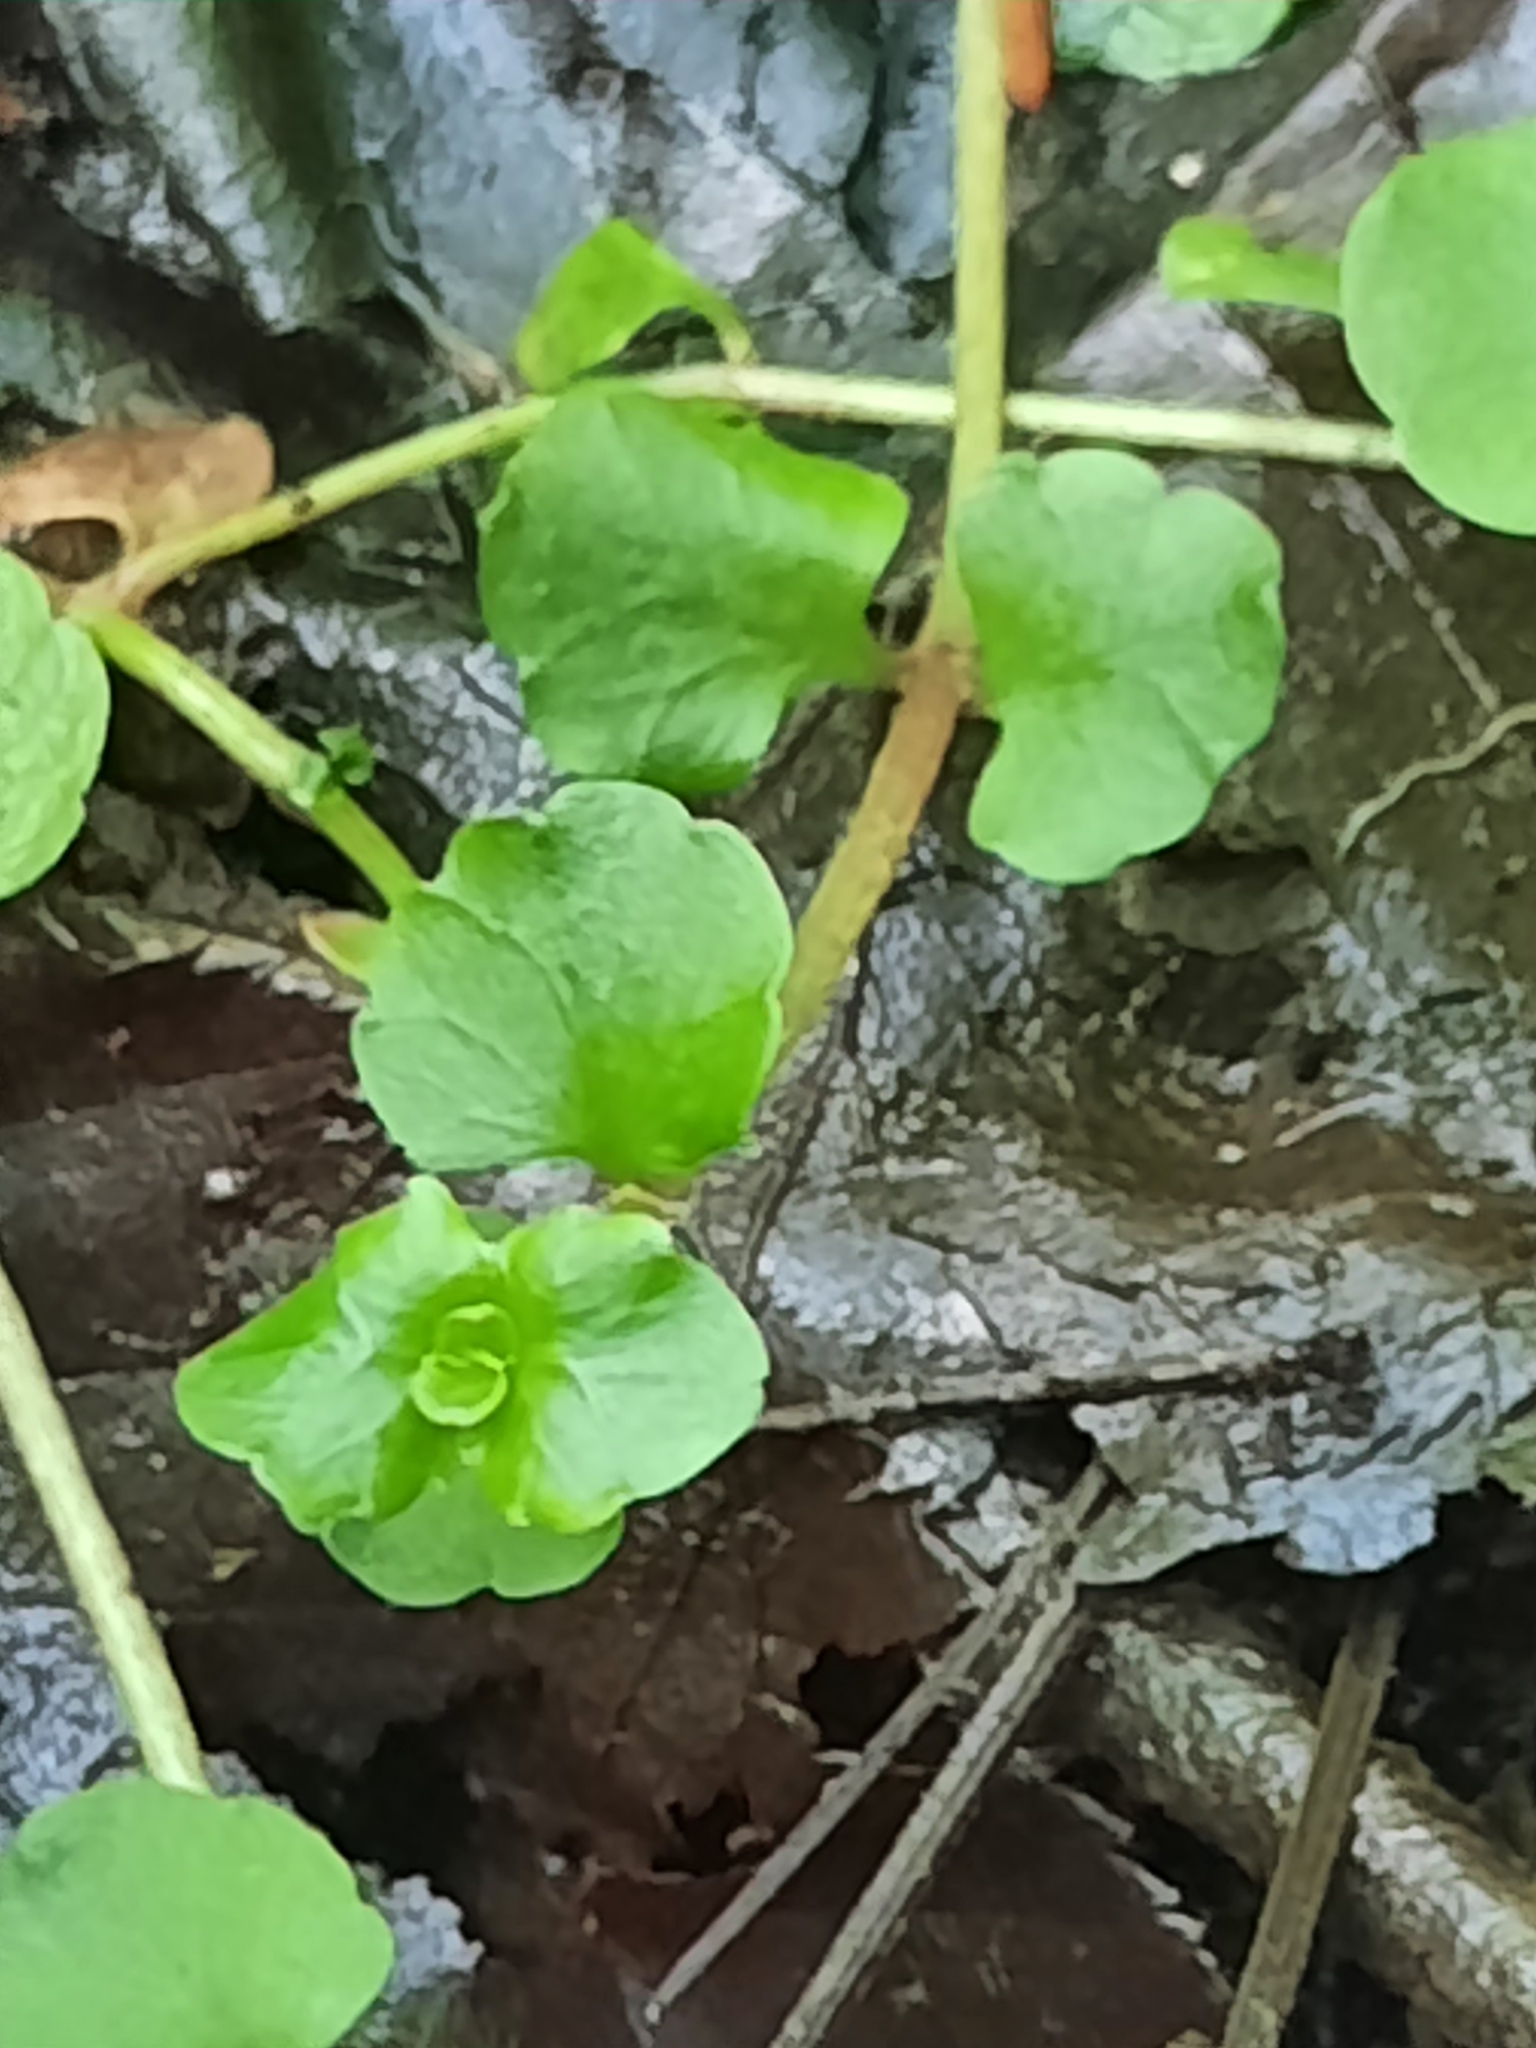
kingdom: Plantae
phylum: Tracheophyta
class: Magnoliopsida
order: Saxifragales
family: Saxifragaceae
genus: Chrysosplenium
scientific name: Chrysosplenium americanum
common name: American golden-saxifrage
